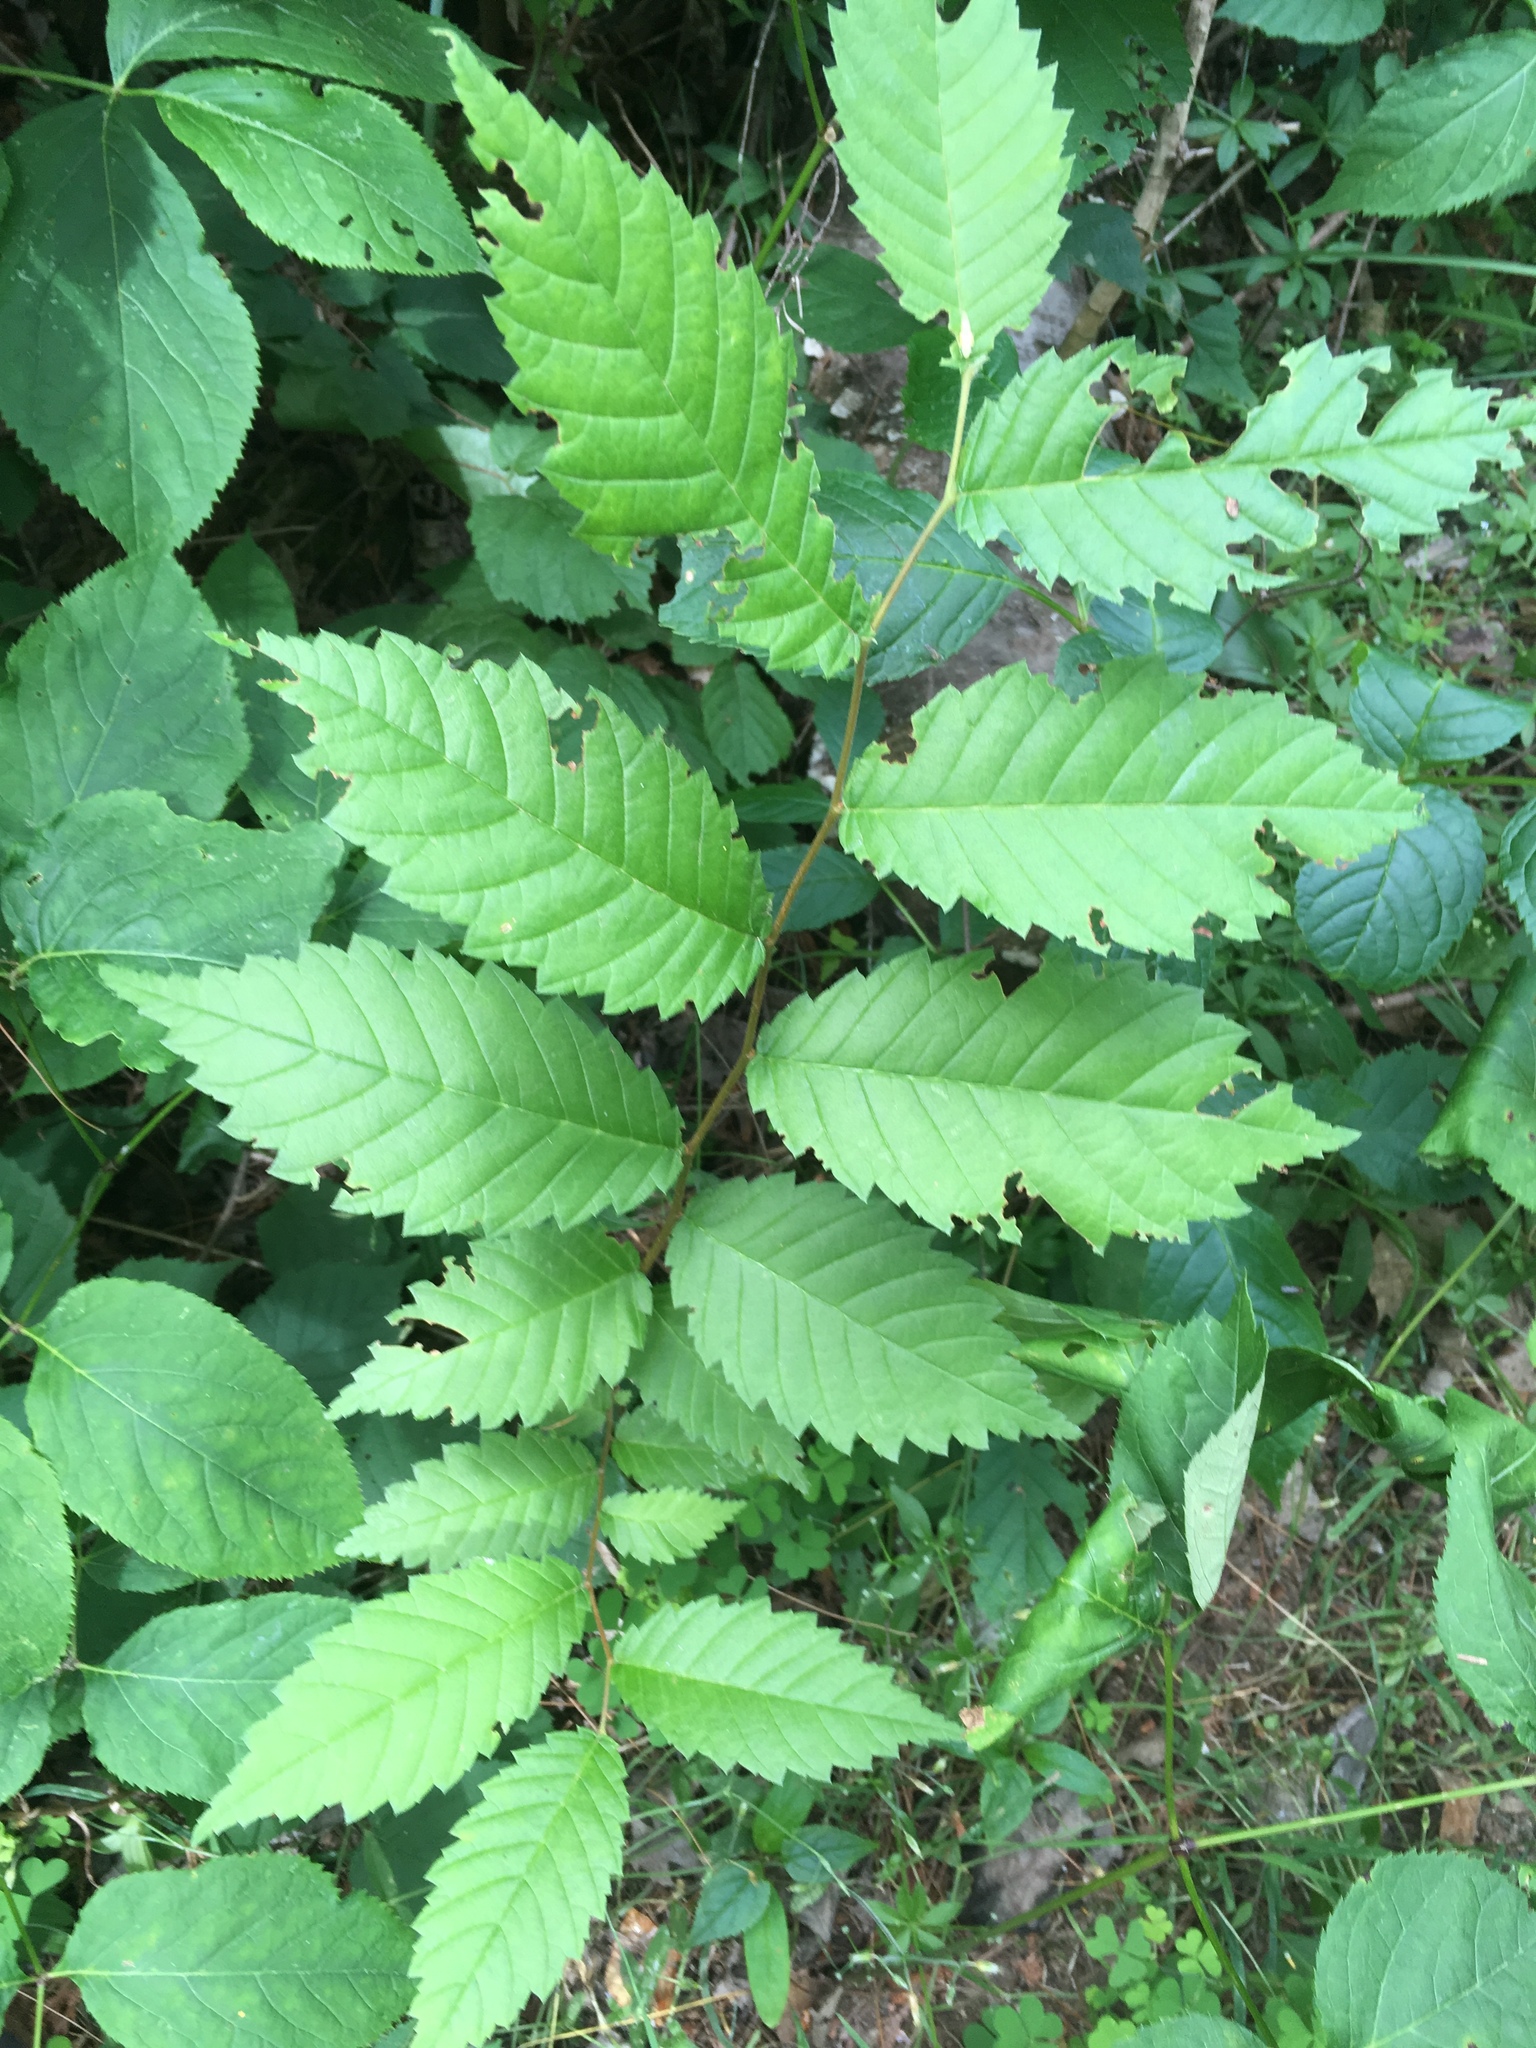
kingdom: Plantae
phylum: Tracheophyta
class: Magnoliopsida
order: Rosales
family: Ulmaceae
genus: Ulmus
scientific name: Ulmus americana
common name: American elm
